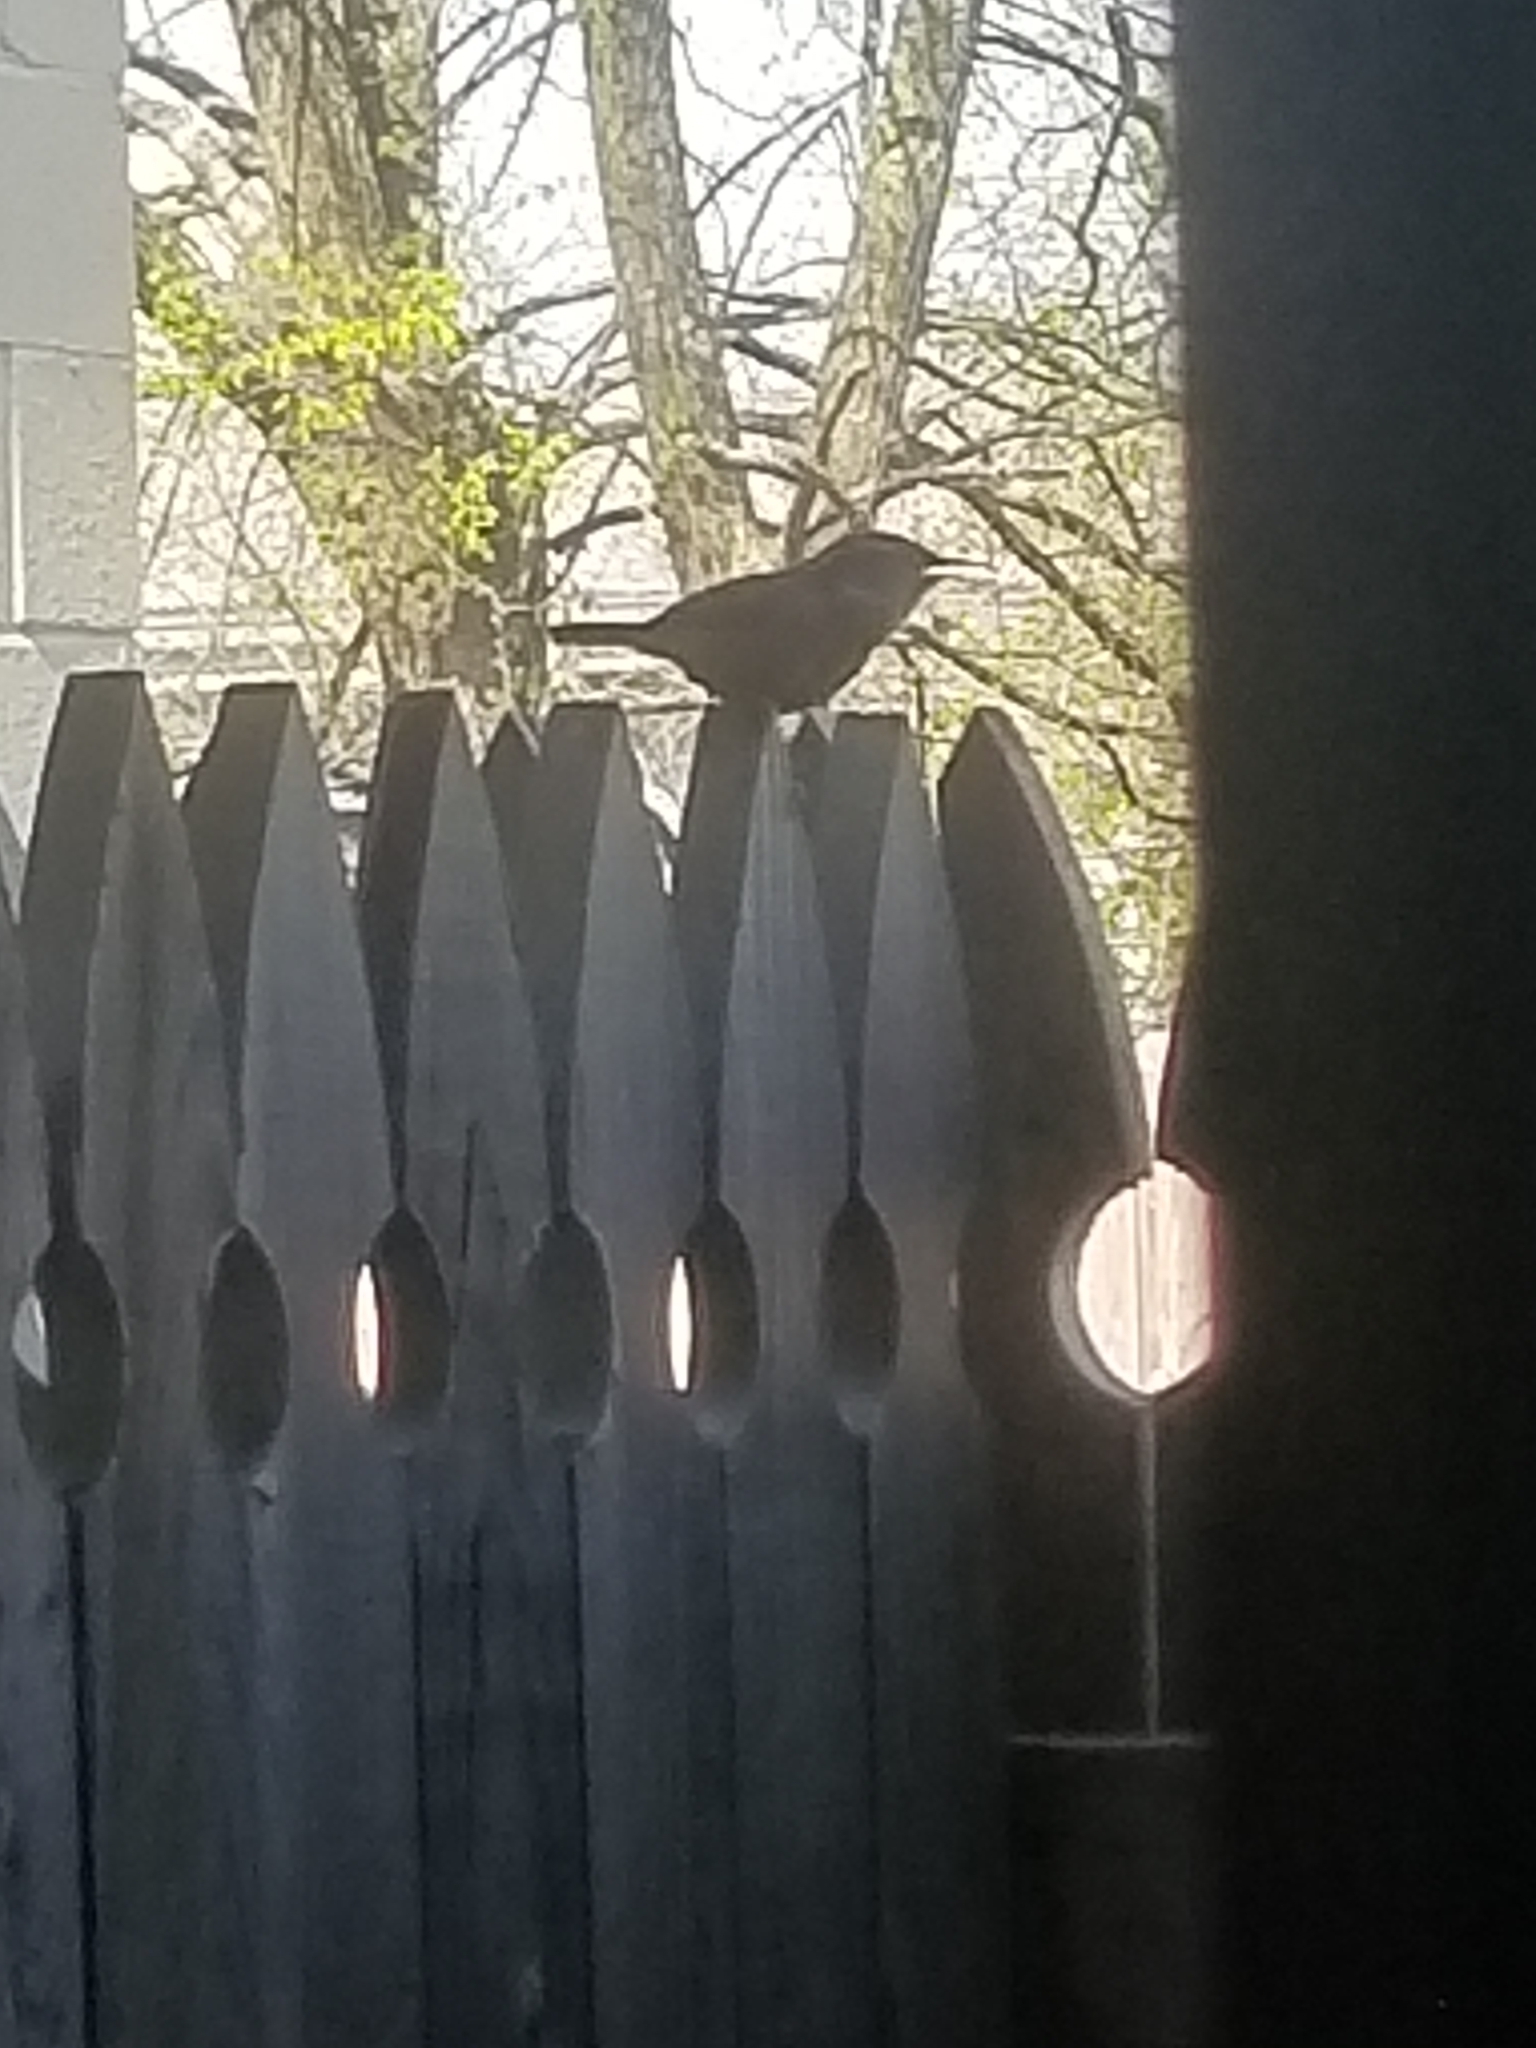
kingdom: Animalia
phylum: Chordata
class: Aves
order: Passeriformes
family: Troglodytidae
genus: Thryothorus
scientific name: Thryothorus ludovicianus
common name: Carolina wren
